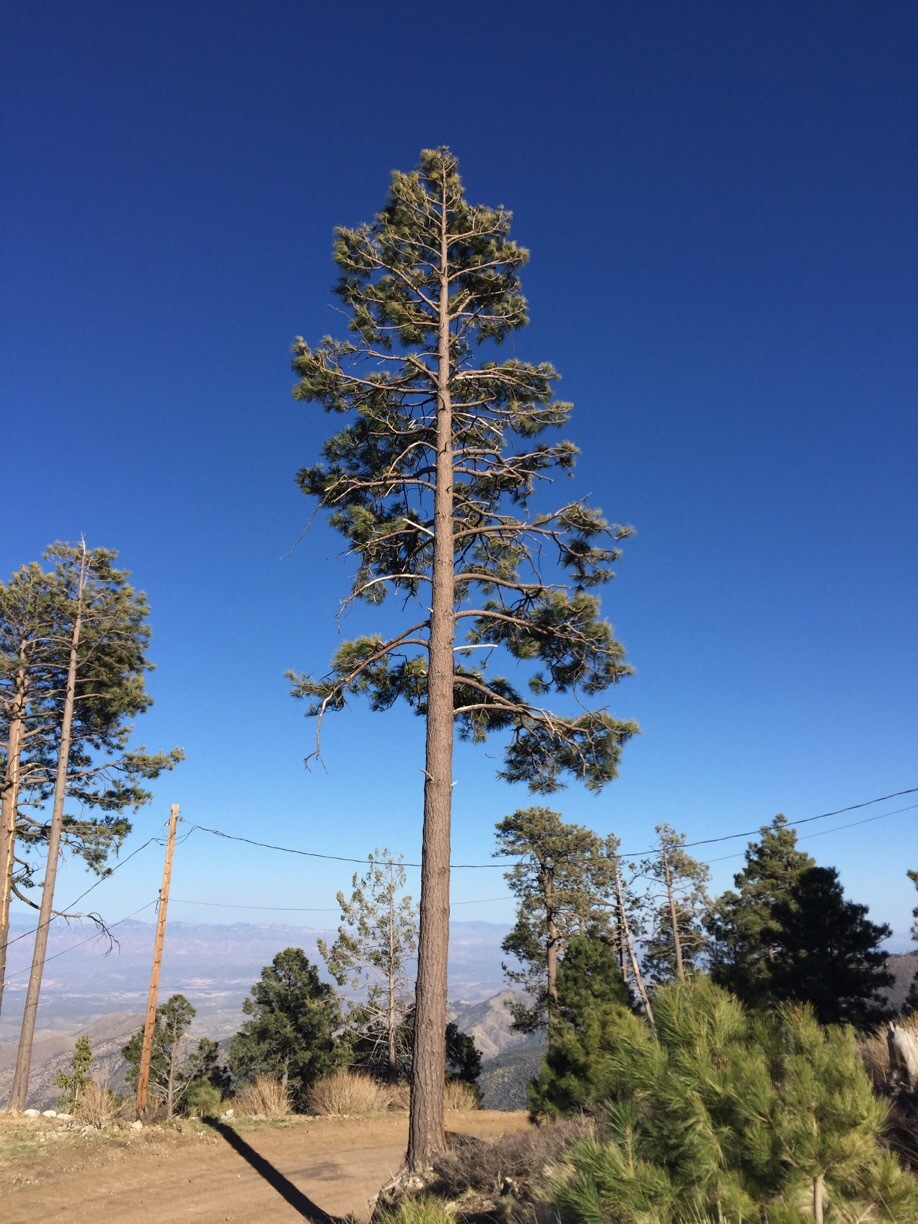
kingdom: Plantae
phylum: Tracheophyta
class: Pinopsida
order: Pinales
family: Pinaceae
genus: Pinus
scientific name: Pinus ponderosa
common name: Western yellow-pine
